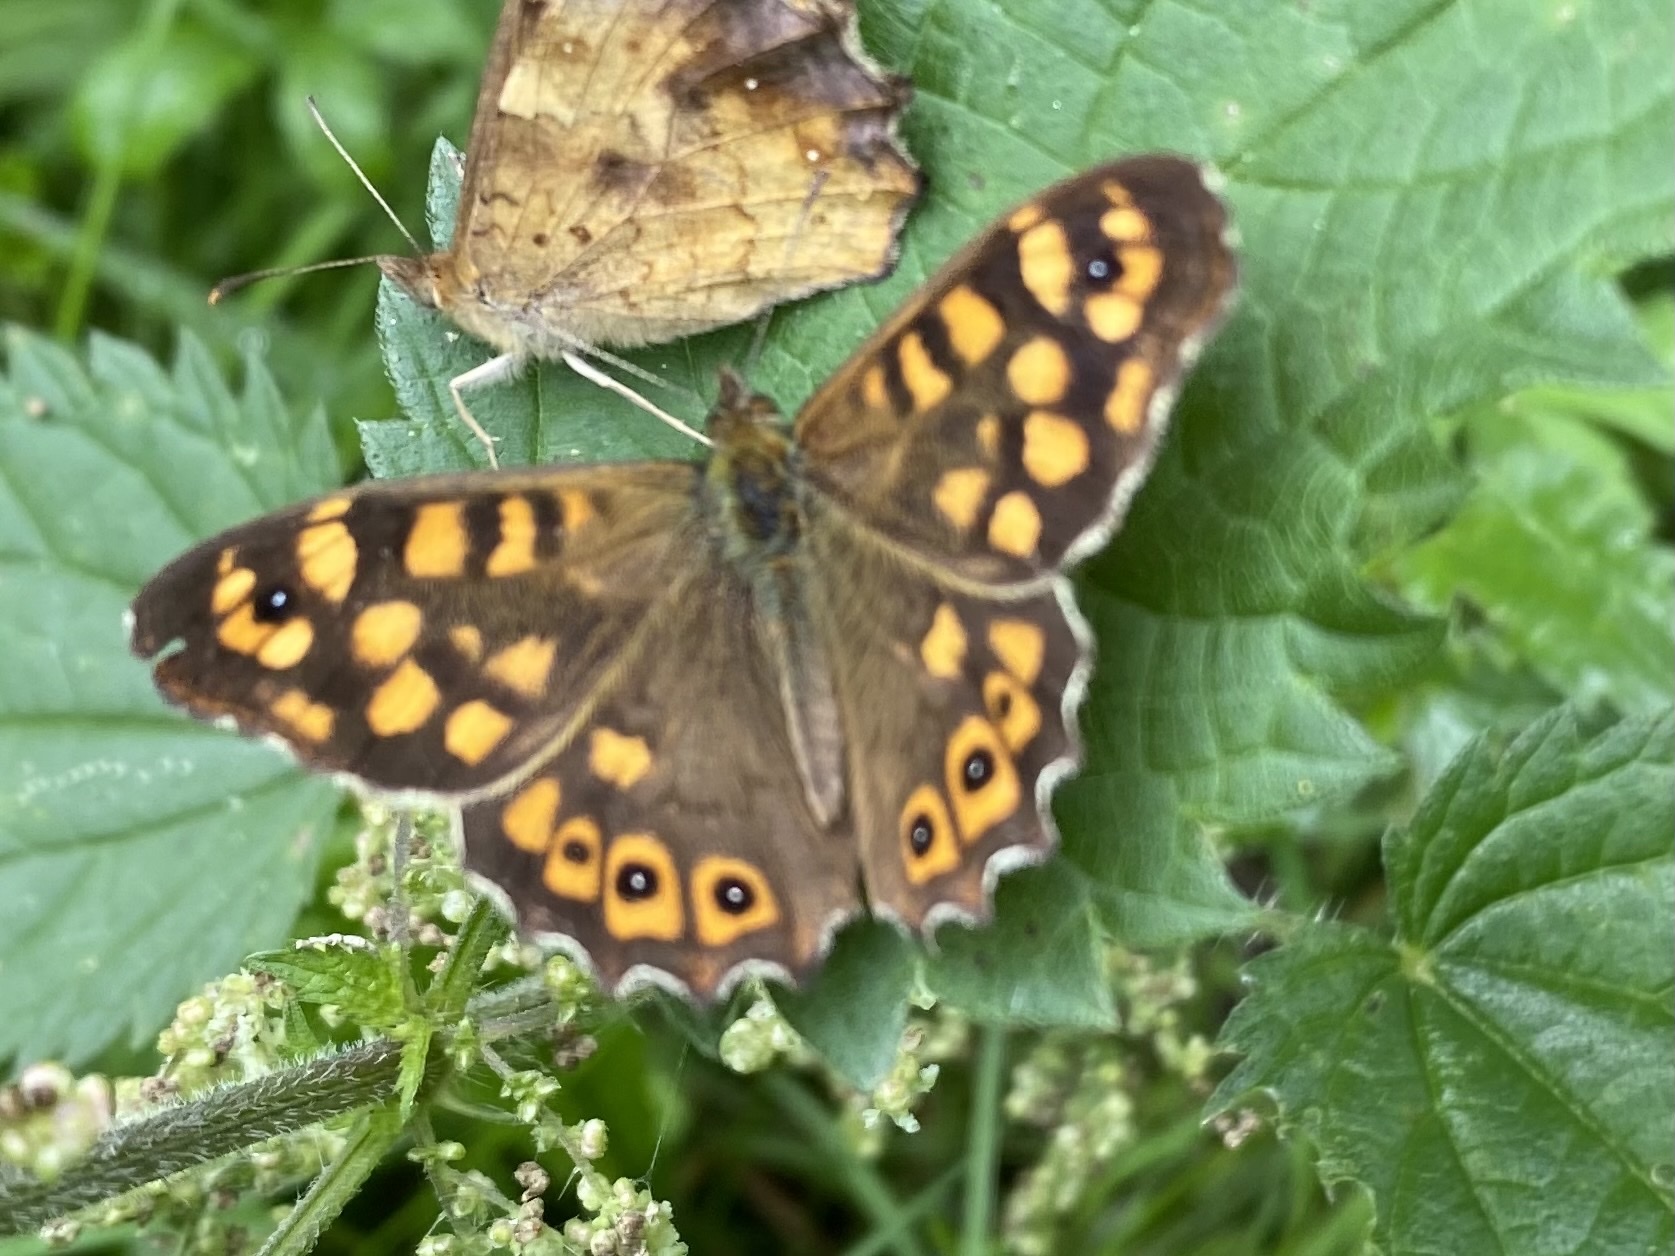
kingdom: Animalia
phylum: Arthropoda
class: Insecta
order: Lepidoptera
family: Nymphalidae
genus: Pararge
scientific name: Pararge aegeria
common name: Speckled wood
